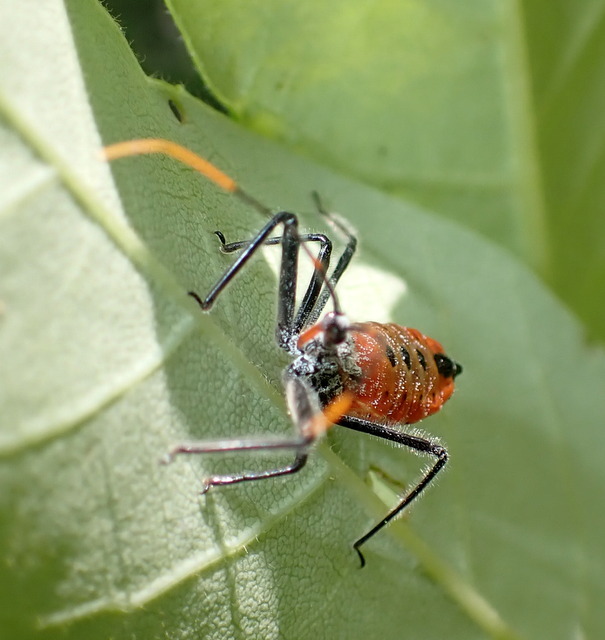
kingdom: Animalia
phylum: Arthropoda
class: Insecta
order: Hemiptera
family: Reduviidae
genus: Arilus
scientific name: Arilus cristatus
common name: North american wheel bug
